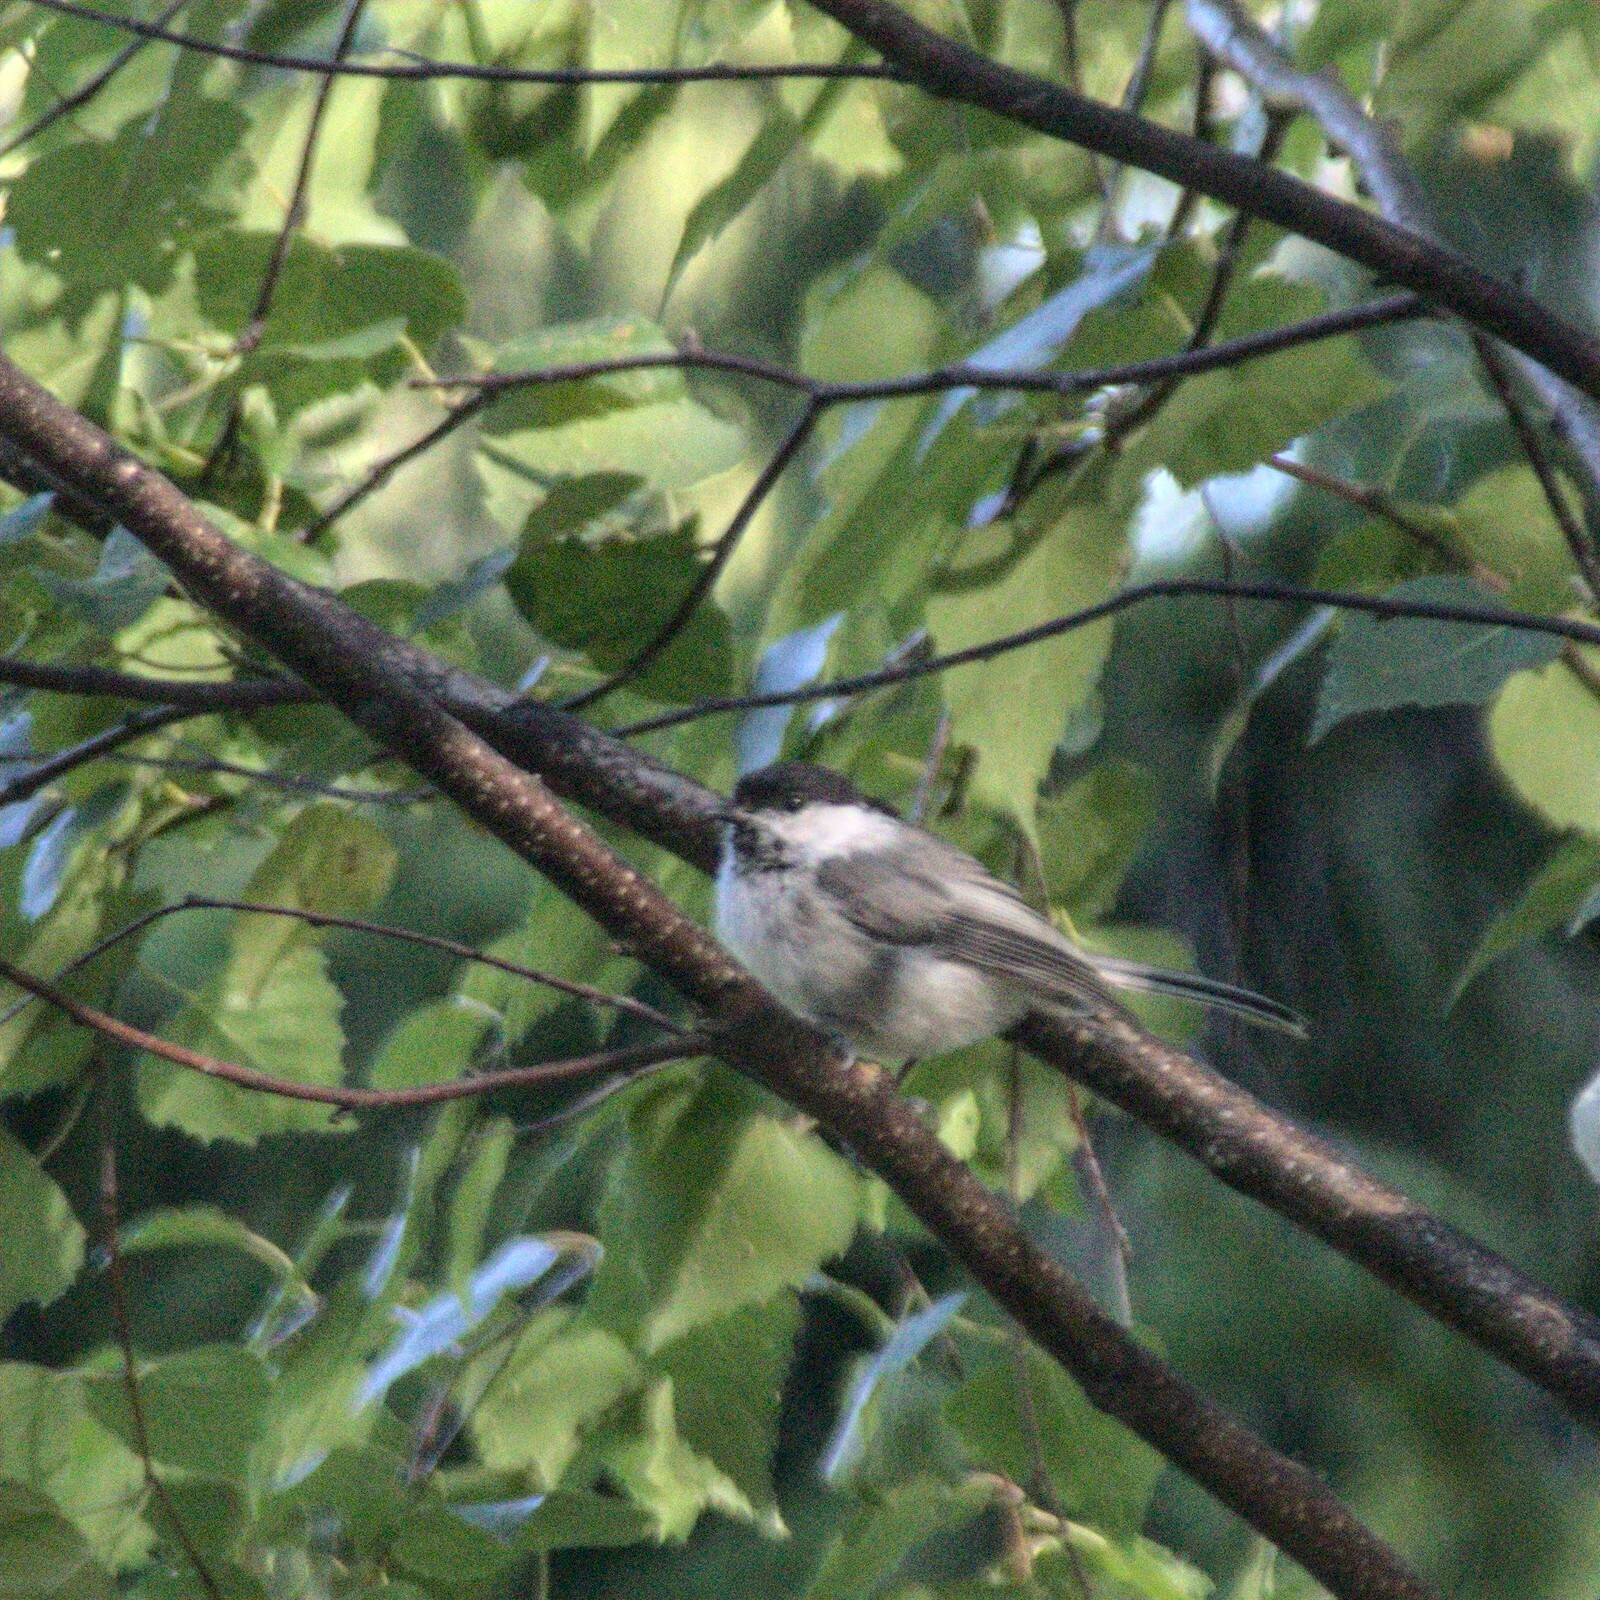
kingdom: Animalia
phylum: Chordata
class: Aves
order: Passeriformes
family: Paridae
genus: Poecile
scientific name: Poecile montanus
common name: Willow tit
